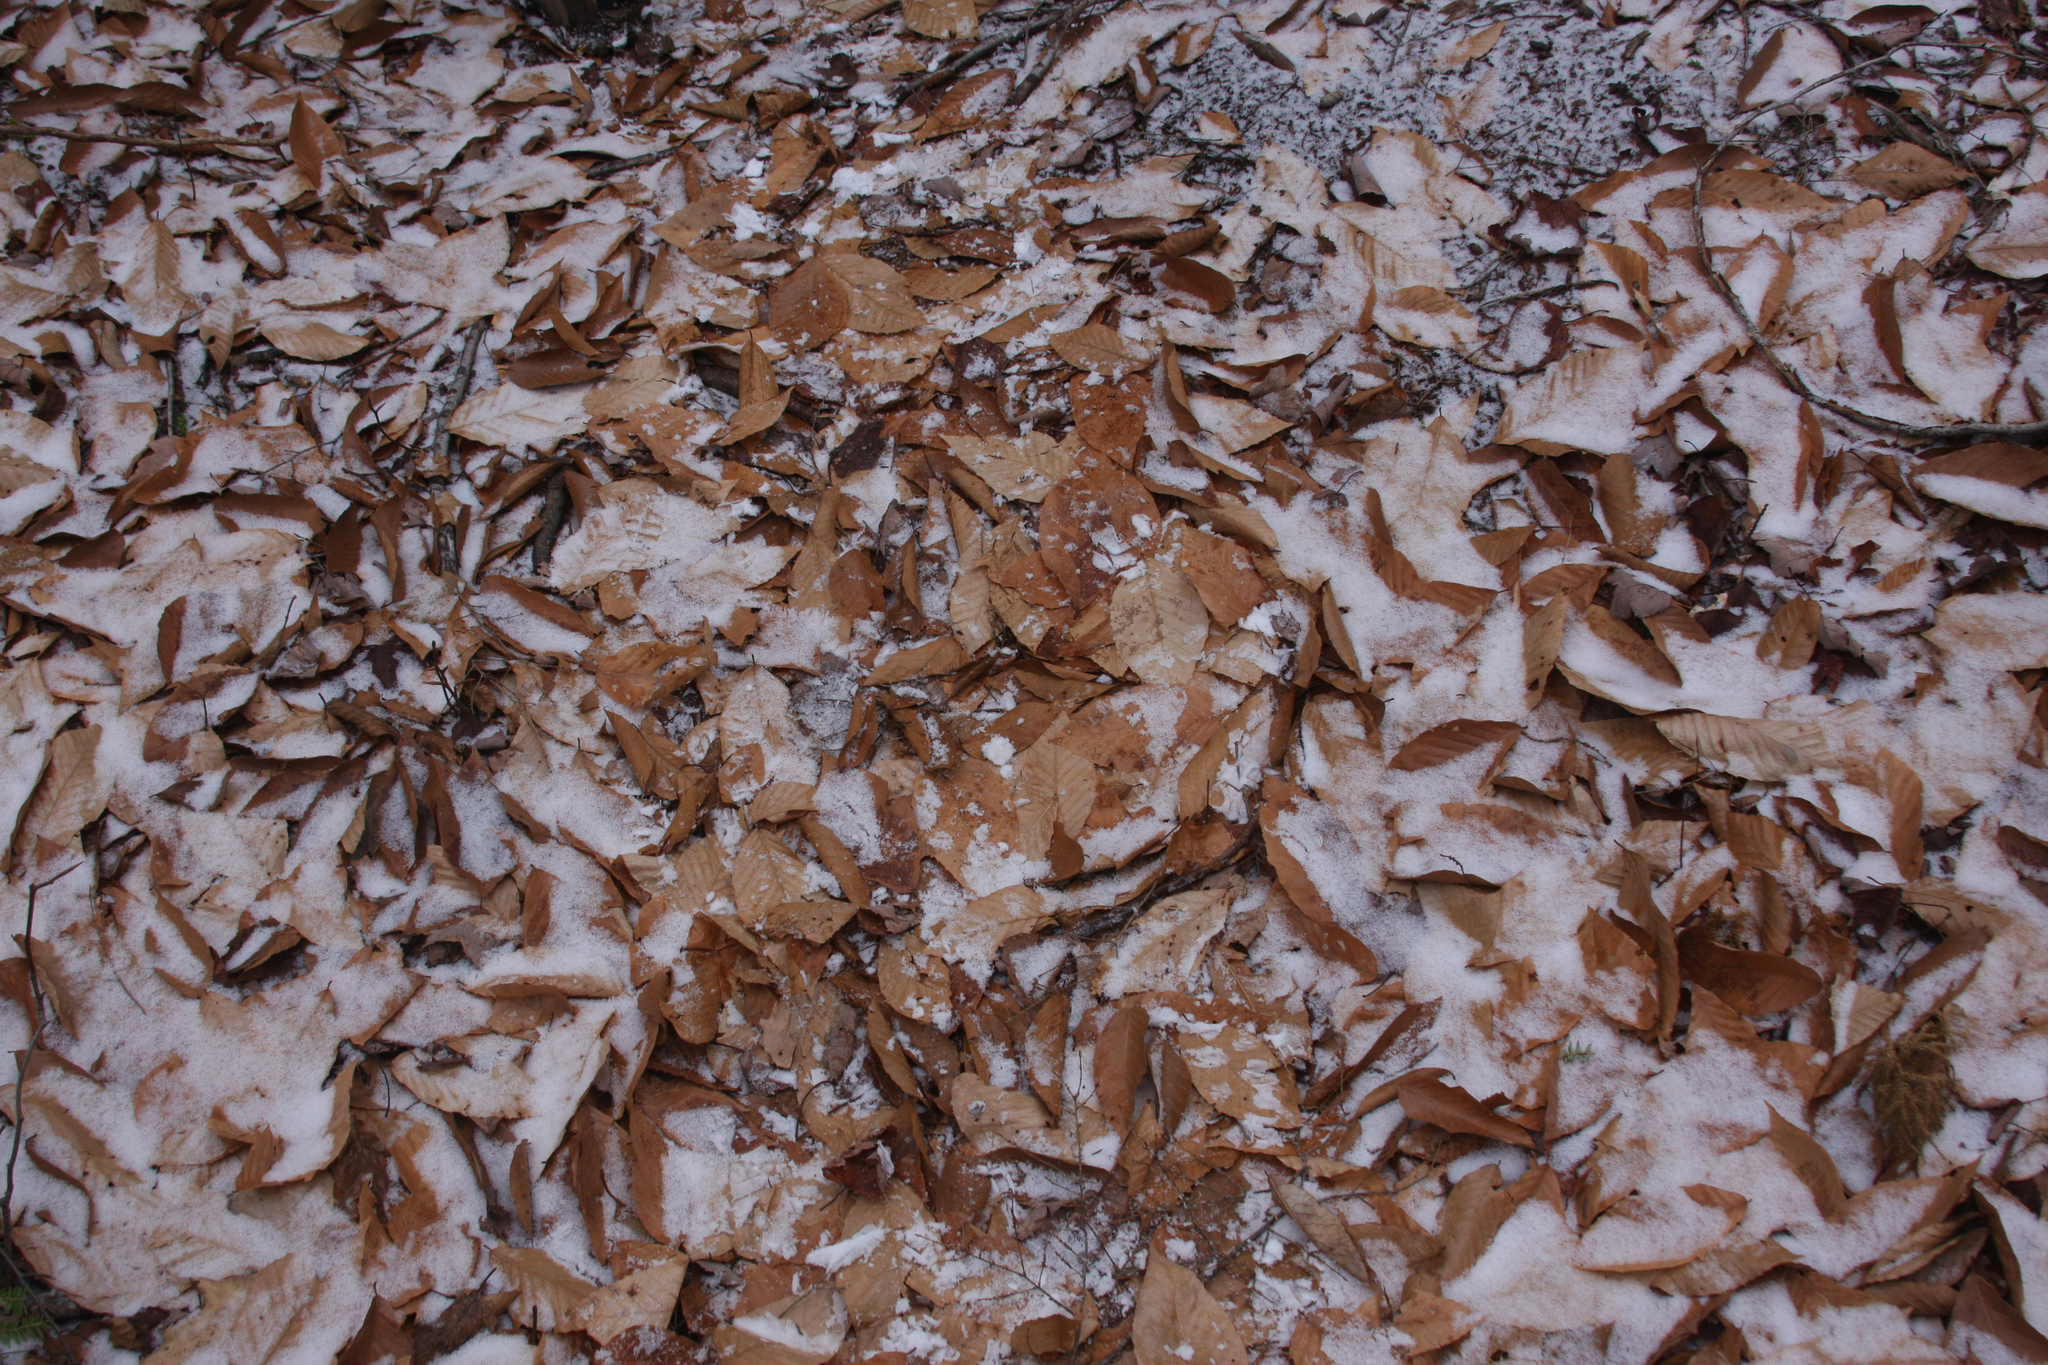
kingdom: Plantae
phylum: Tracheophyta
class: Magnoliopsida
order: Fagales
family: Fagaceae
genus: Fagus
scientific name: Fagus grandifolia
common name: American beech
